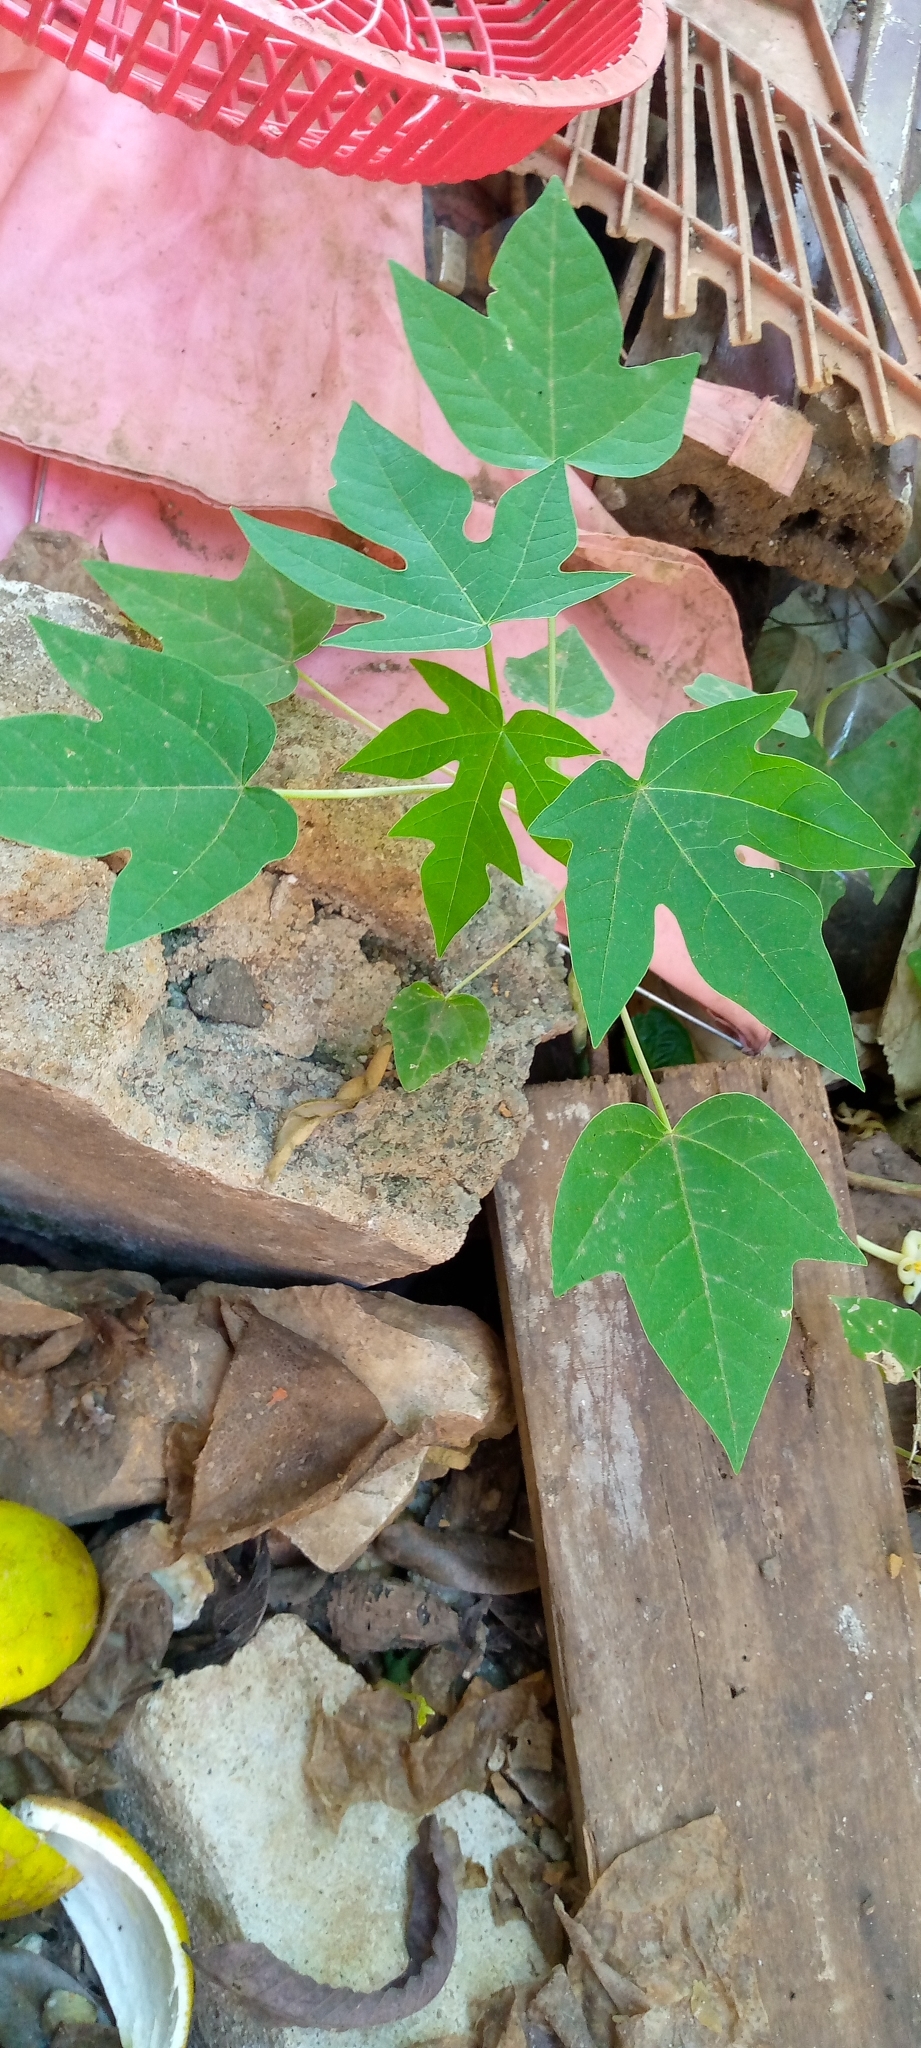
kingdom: Plantae
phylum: Tracheophyta
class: Magnoliopsida
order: Brassicales
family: Caricaceae
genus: Carica
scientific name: Carica papaya
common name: Papaya
